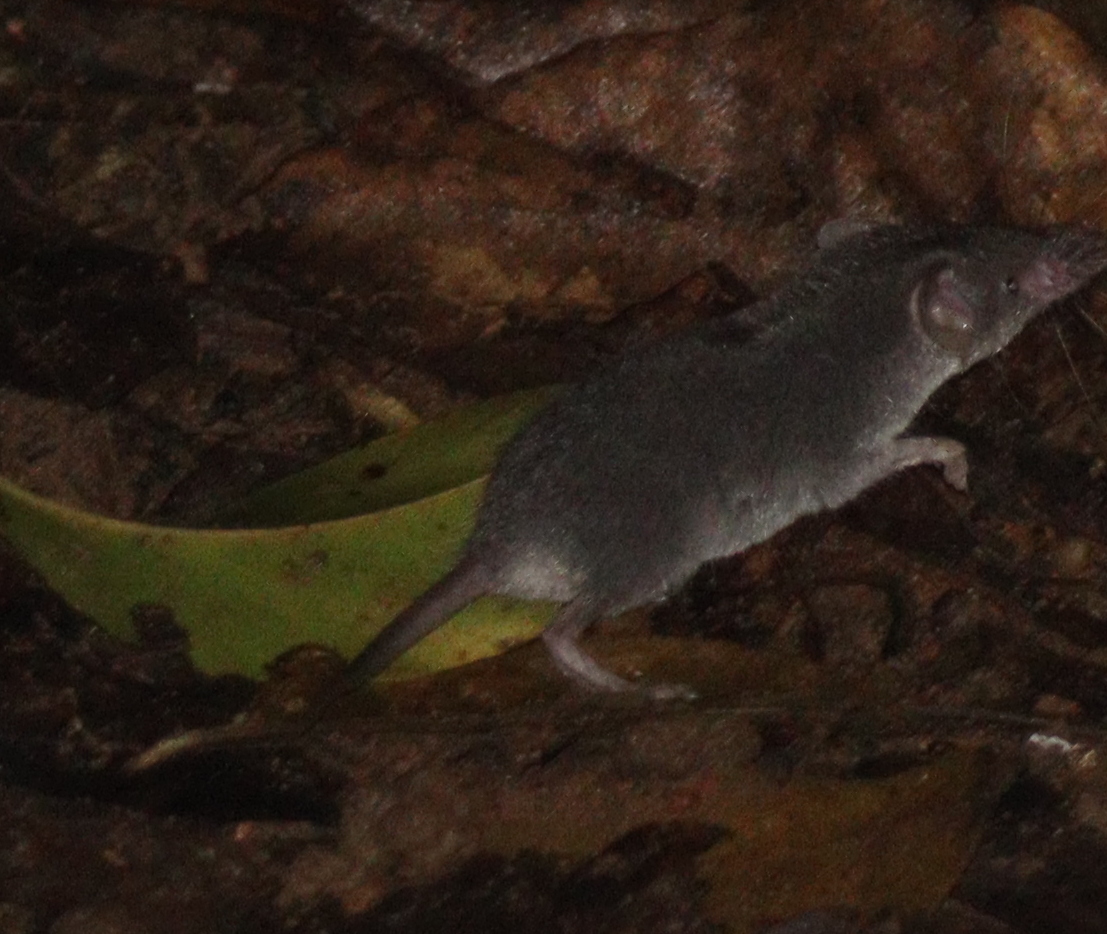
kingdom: Animalia
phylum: Chordata
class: Mammalia
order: Soricomorpha
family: Soricidae
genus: Crocidura
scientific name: Crocidura fuliginosa
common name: Southeast asian shrew
